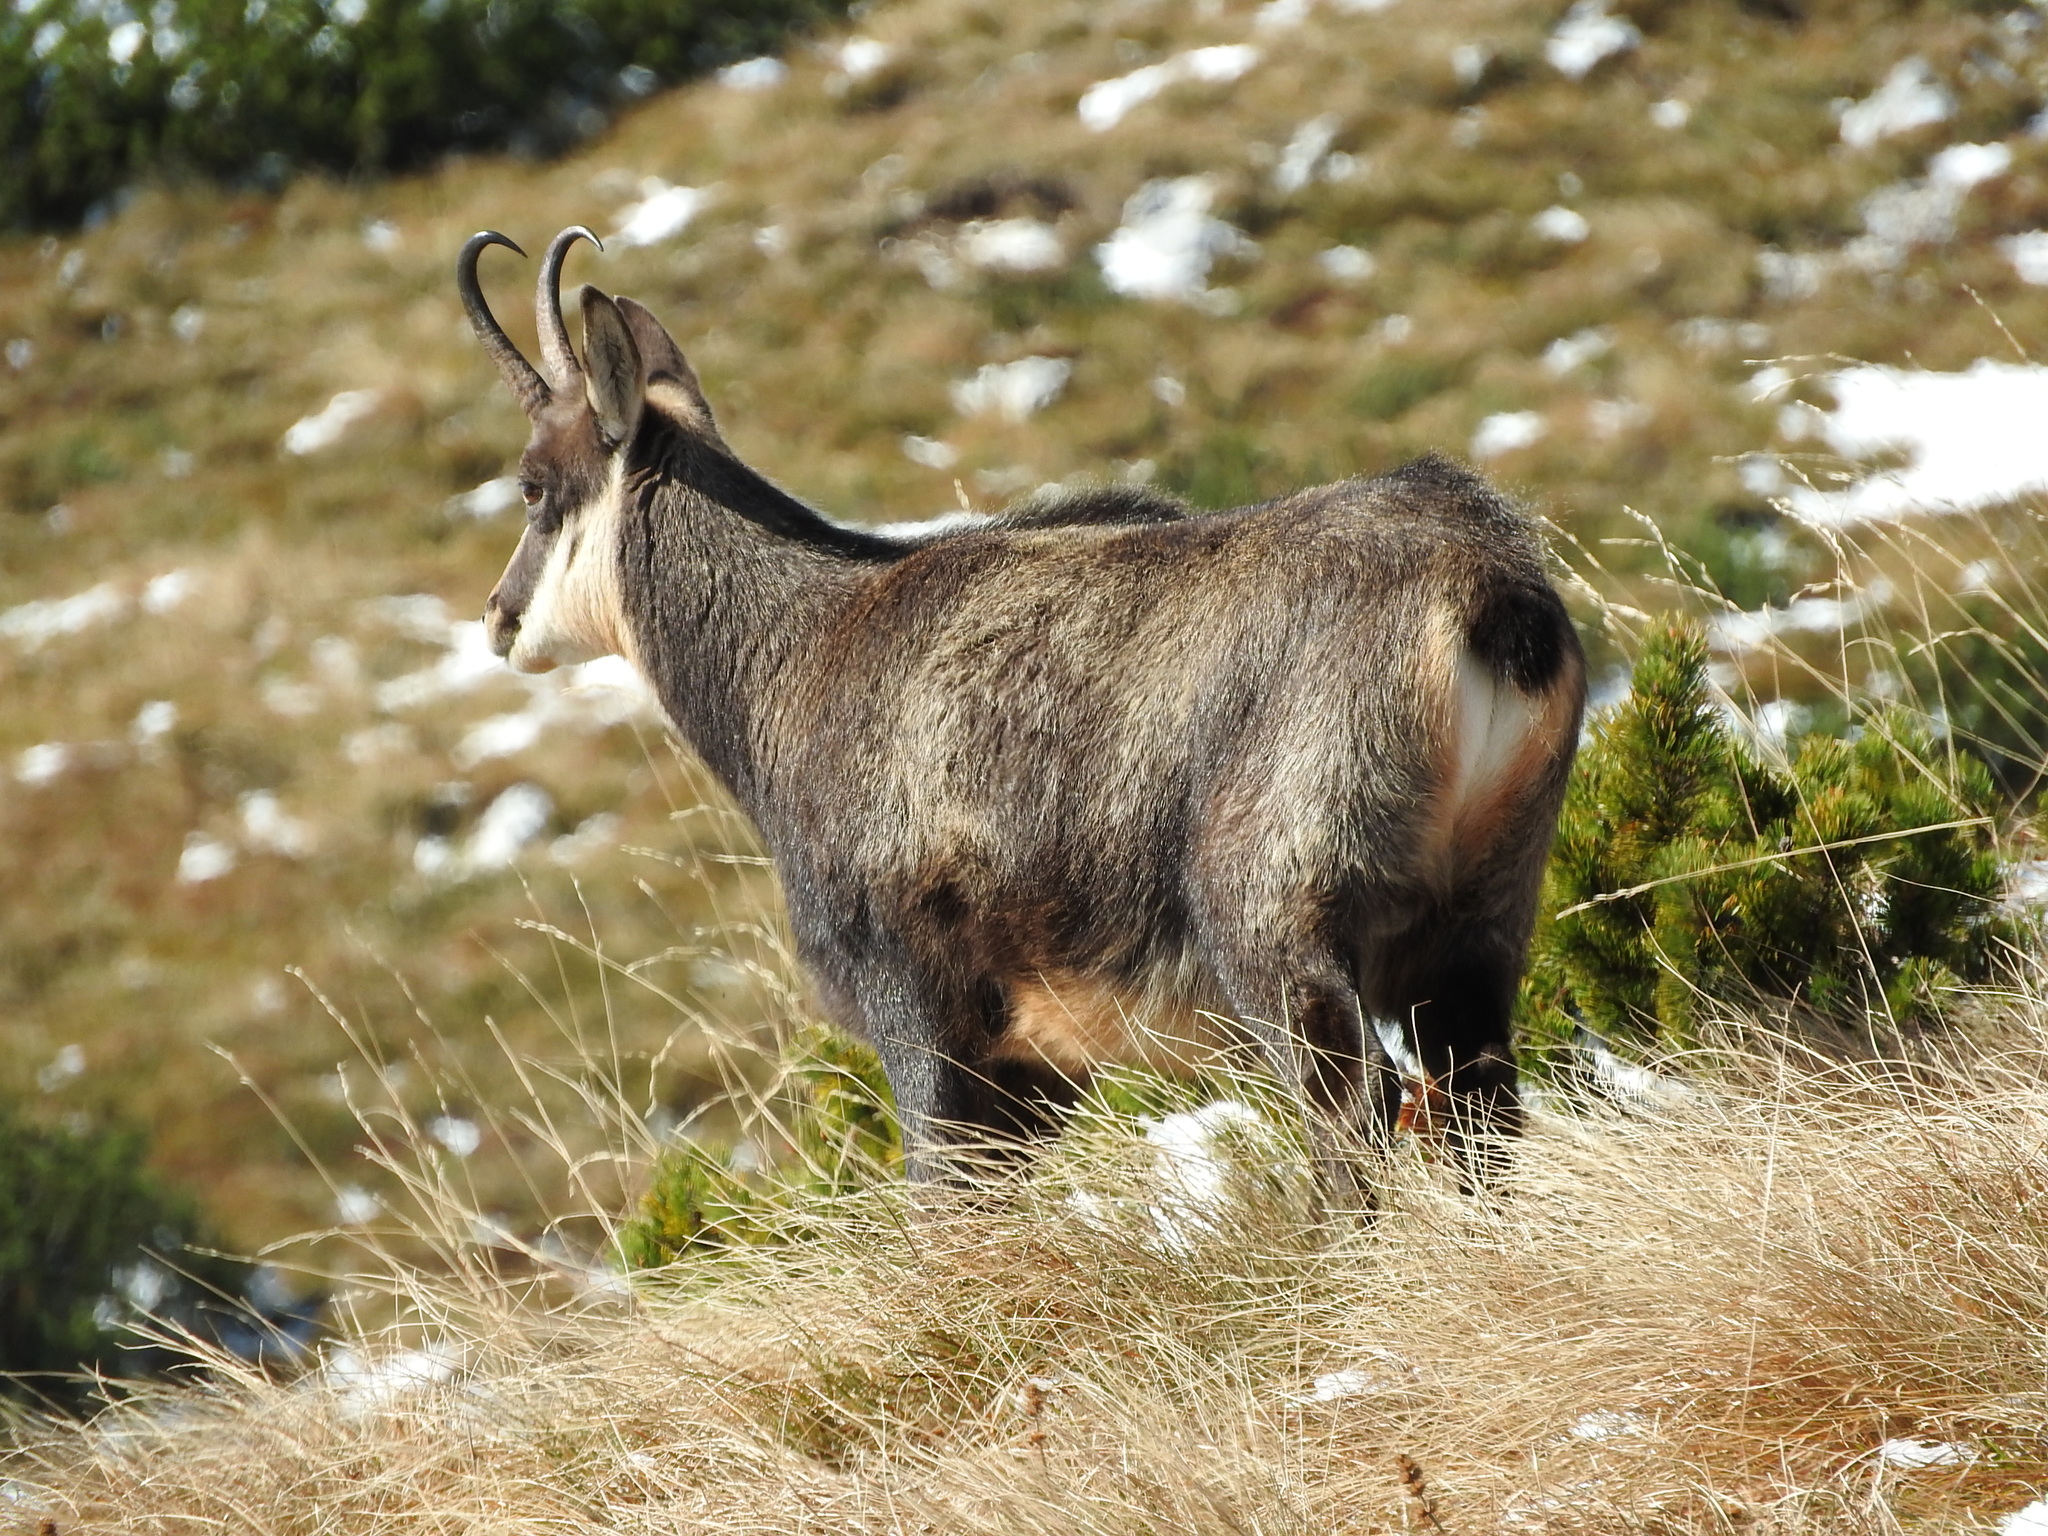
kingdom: Animalia
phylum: Chordata
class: Mammalia
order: Artiodactyla
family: Bovidae
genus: Rupicapra
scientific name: Rupicapra rupicapra
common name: Chamois
